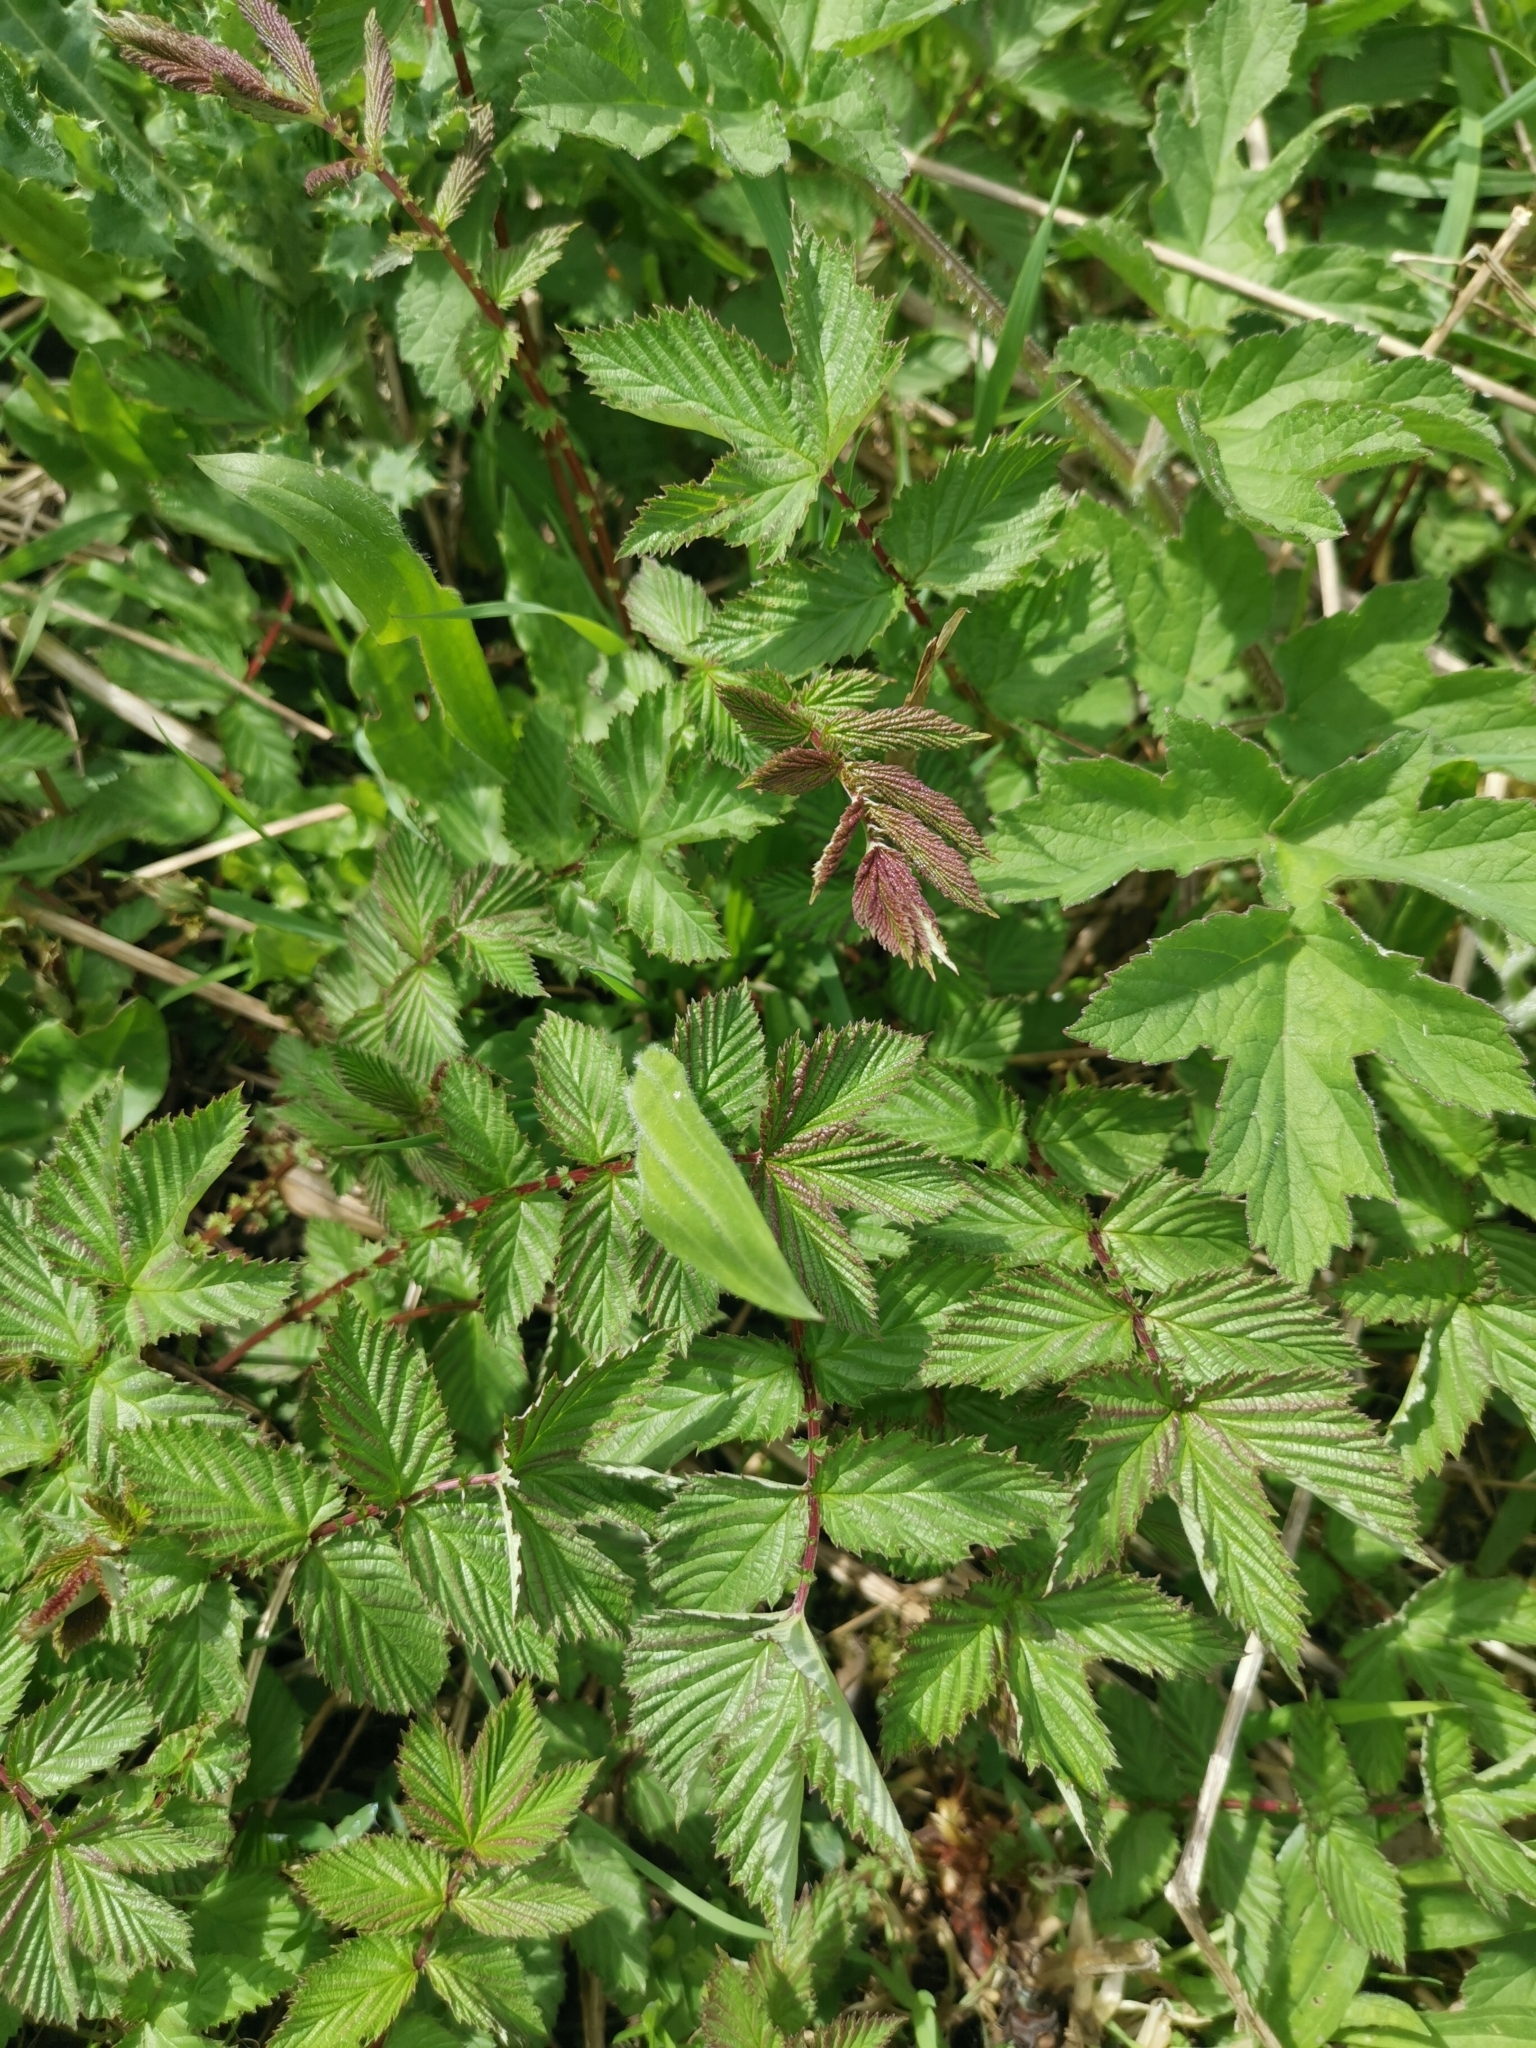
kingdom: Plantae
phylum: Tracheophyta
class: Magnoliopsida
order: Rosales
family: Rosaceae
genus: Filipendula
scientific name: Filipendula ulmaria
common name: Meadowsweet
